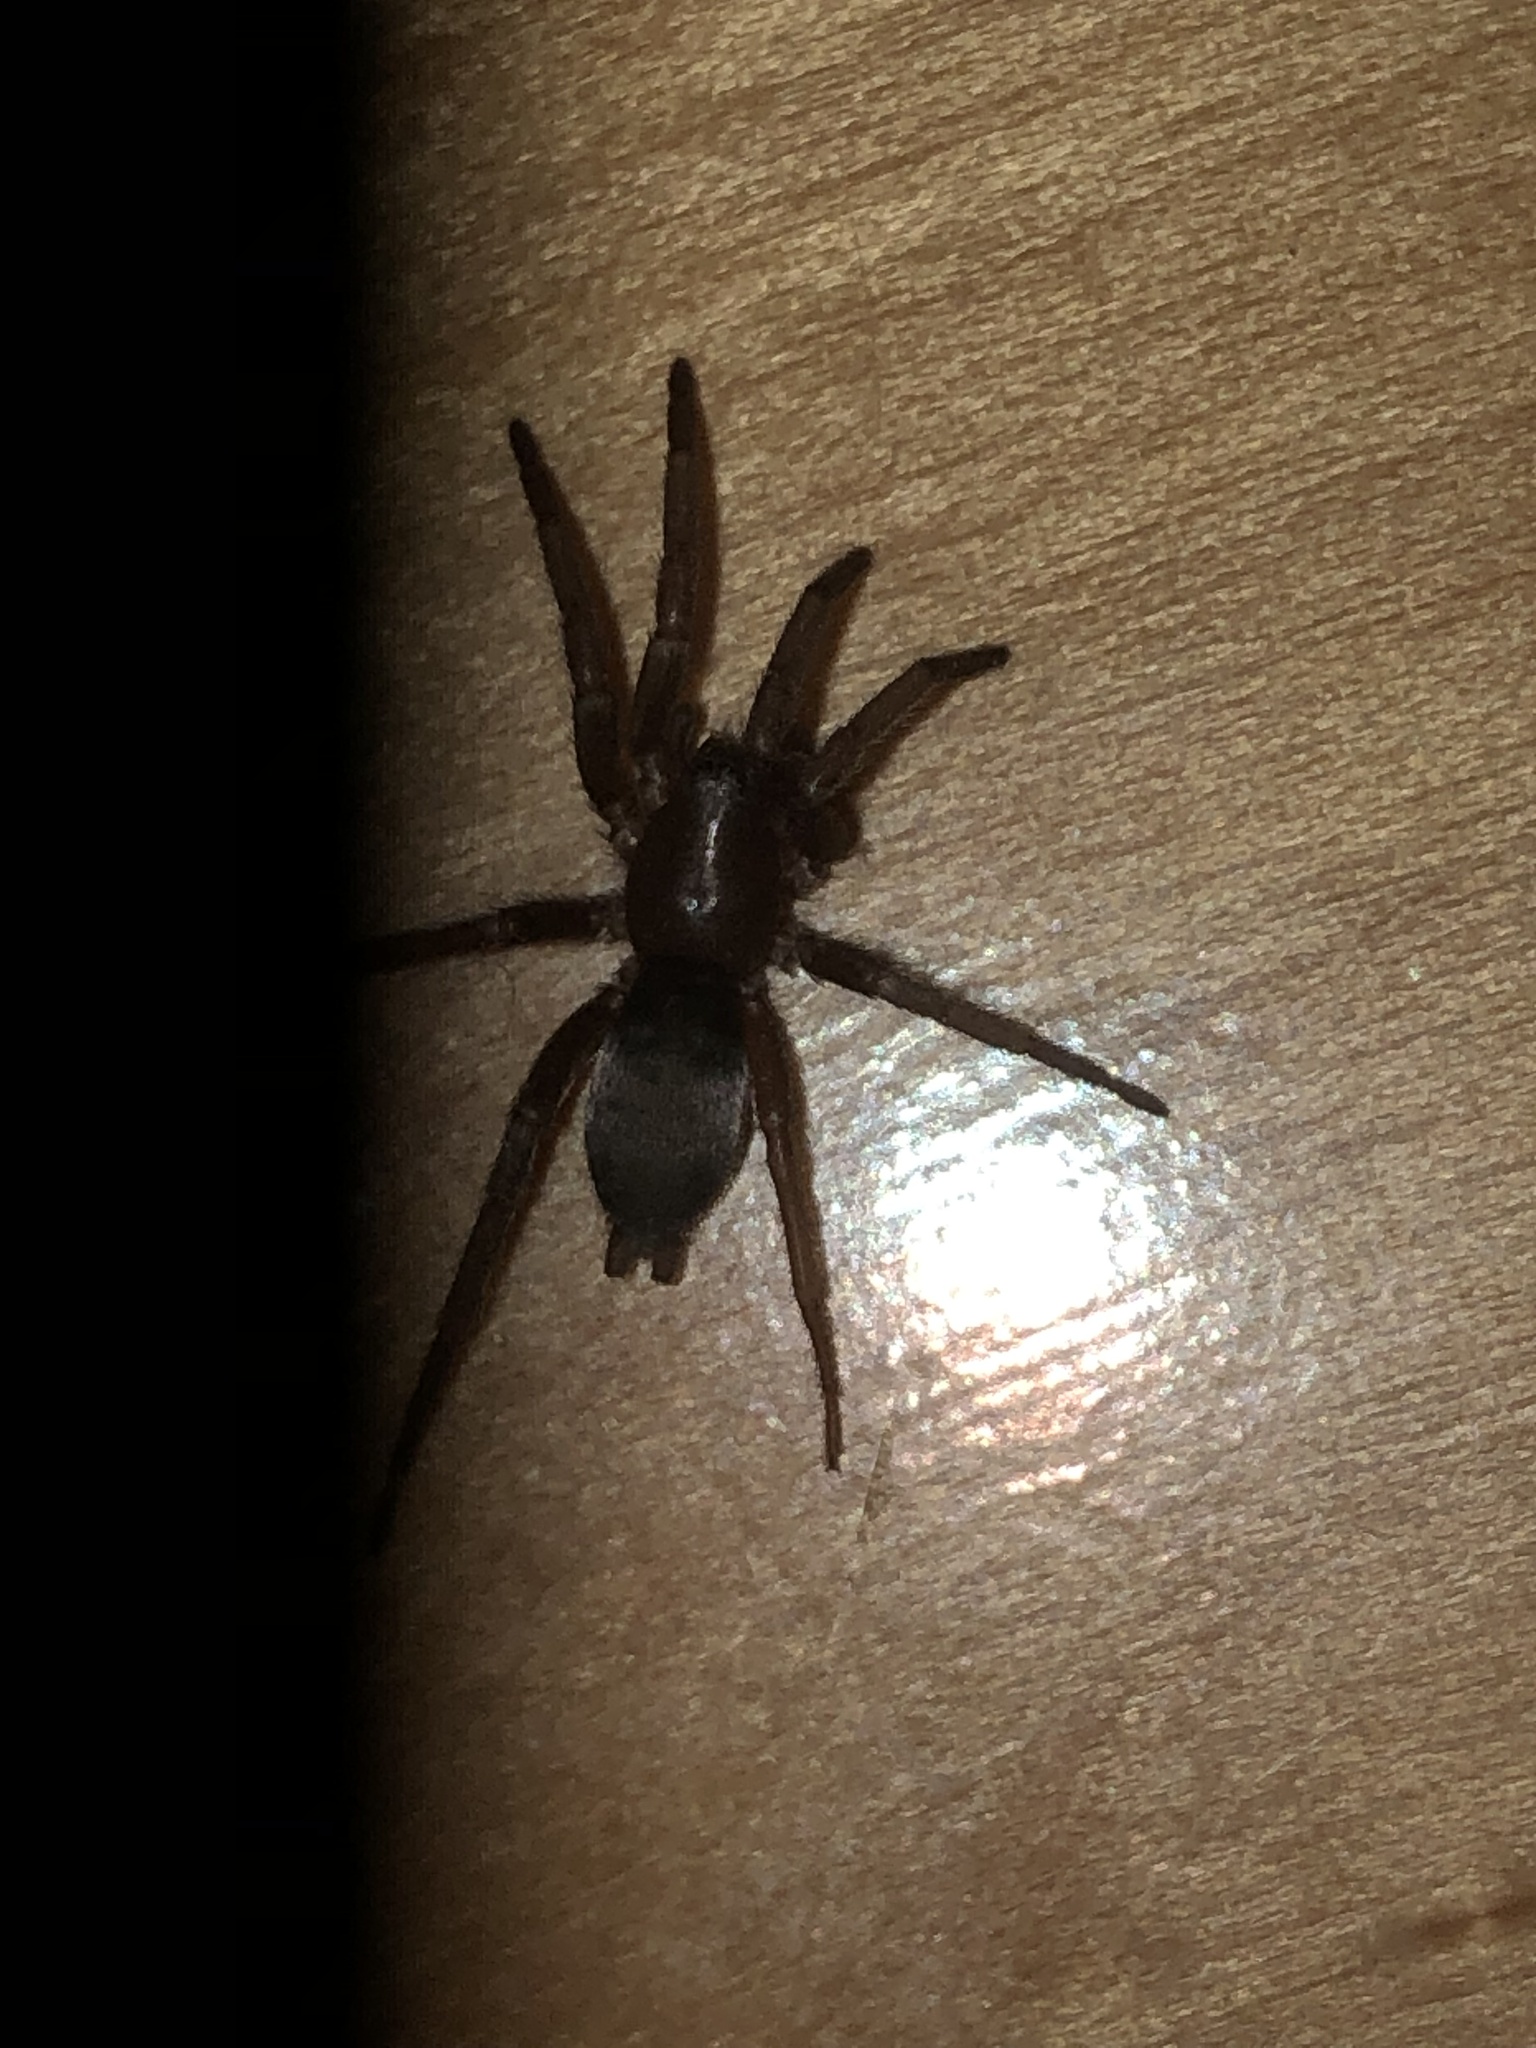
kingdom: Animalia
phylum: Arthropoda
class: Arachnida
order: Araneae
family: Gnaphosidae
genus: Scotophaeus
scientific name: Scotophaeus blackwalli
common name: Mouse spider
